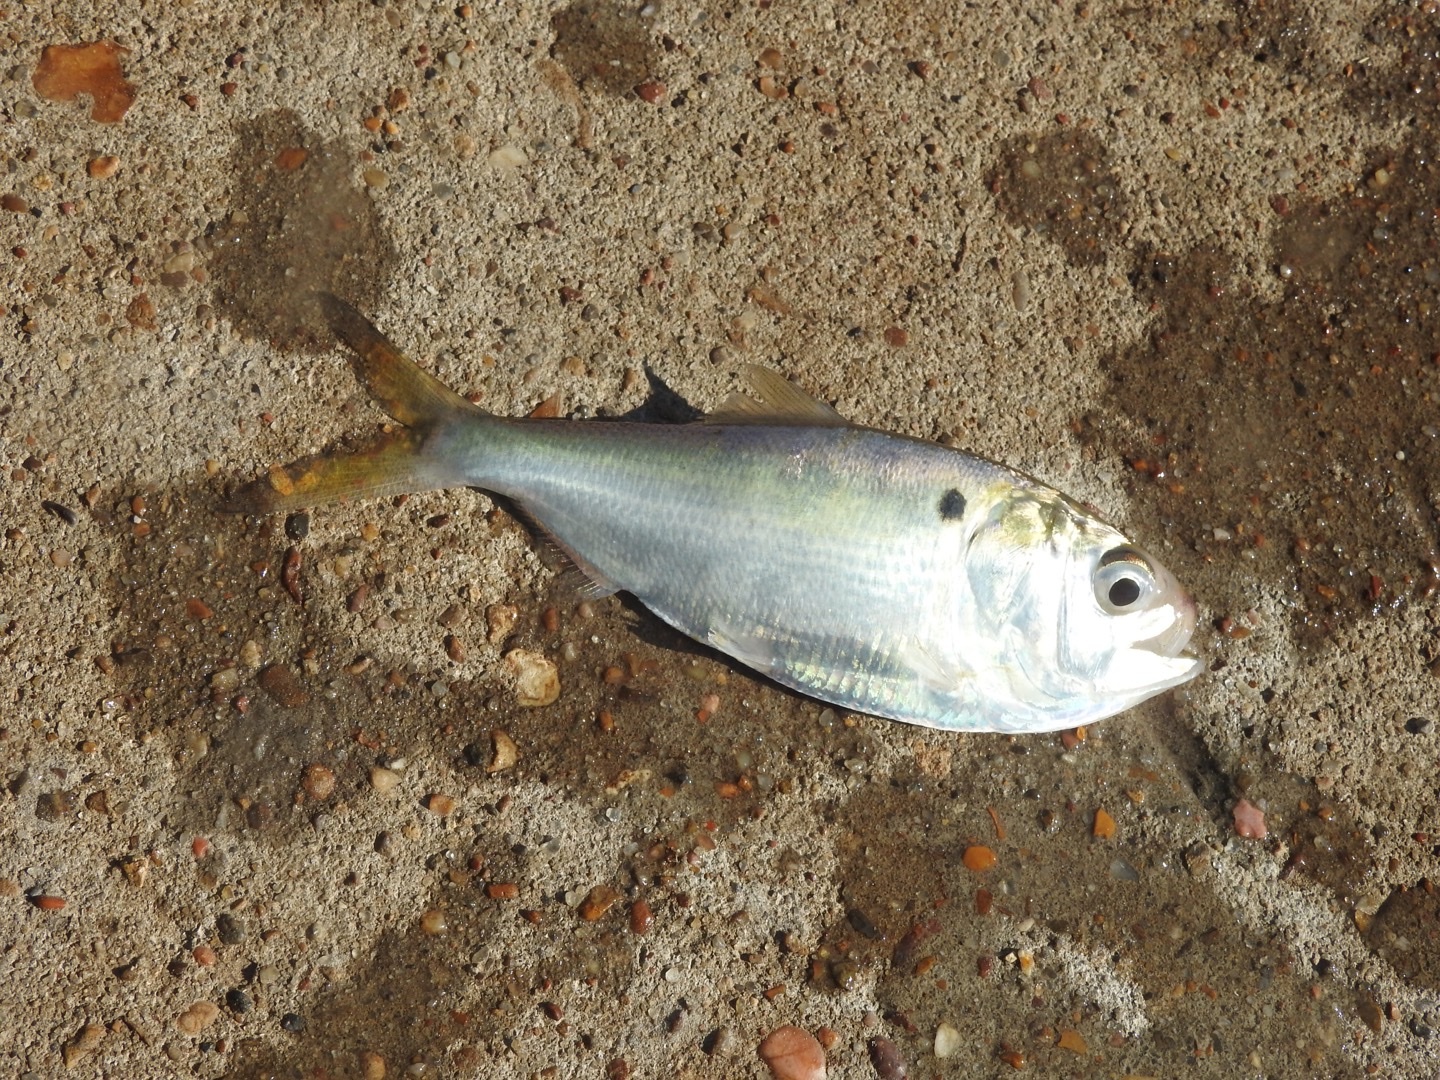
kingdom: Animalia
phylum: Chordata
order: Clupeiformes
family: Clupeidae
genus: Brevoortia
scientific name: Brevoortia patronus
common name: Gulf menhaden
